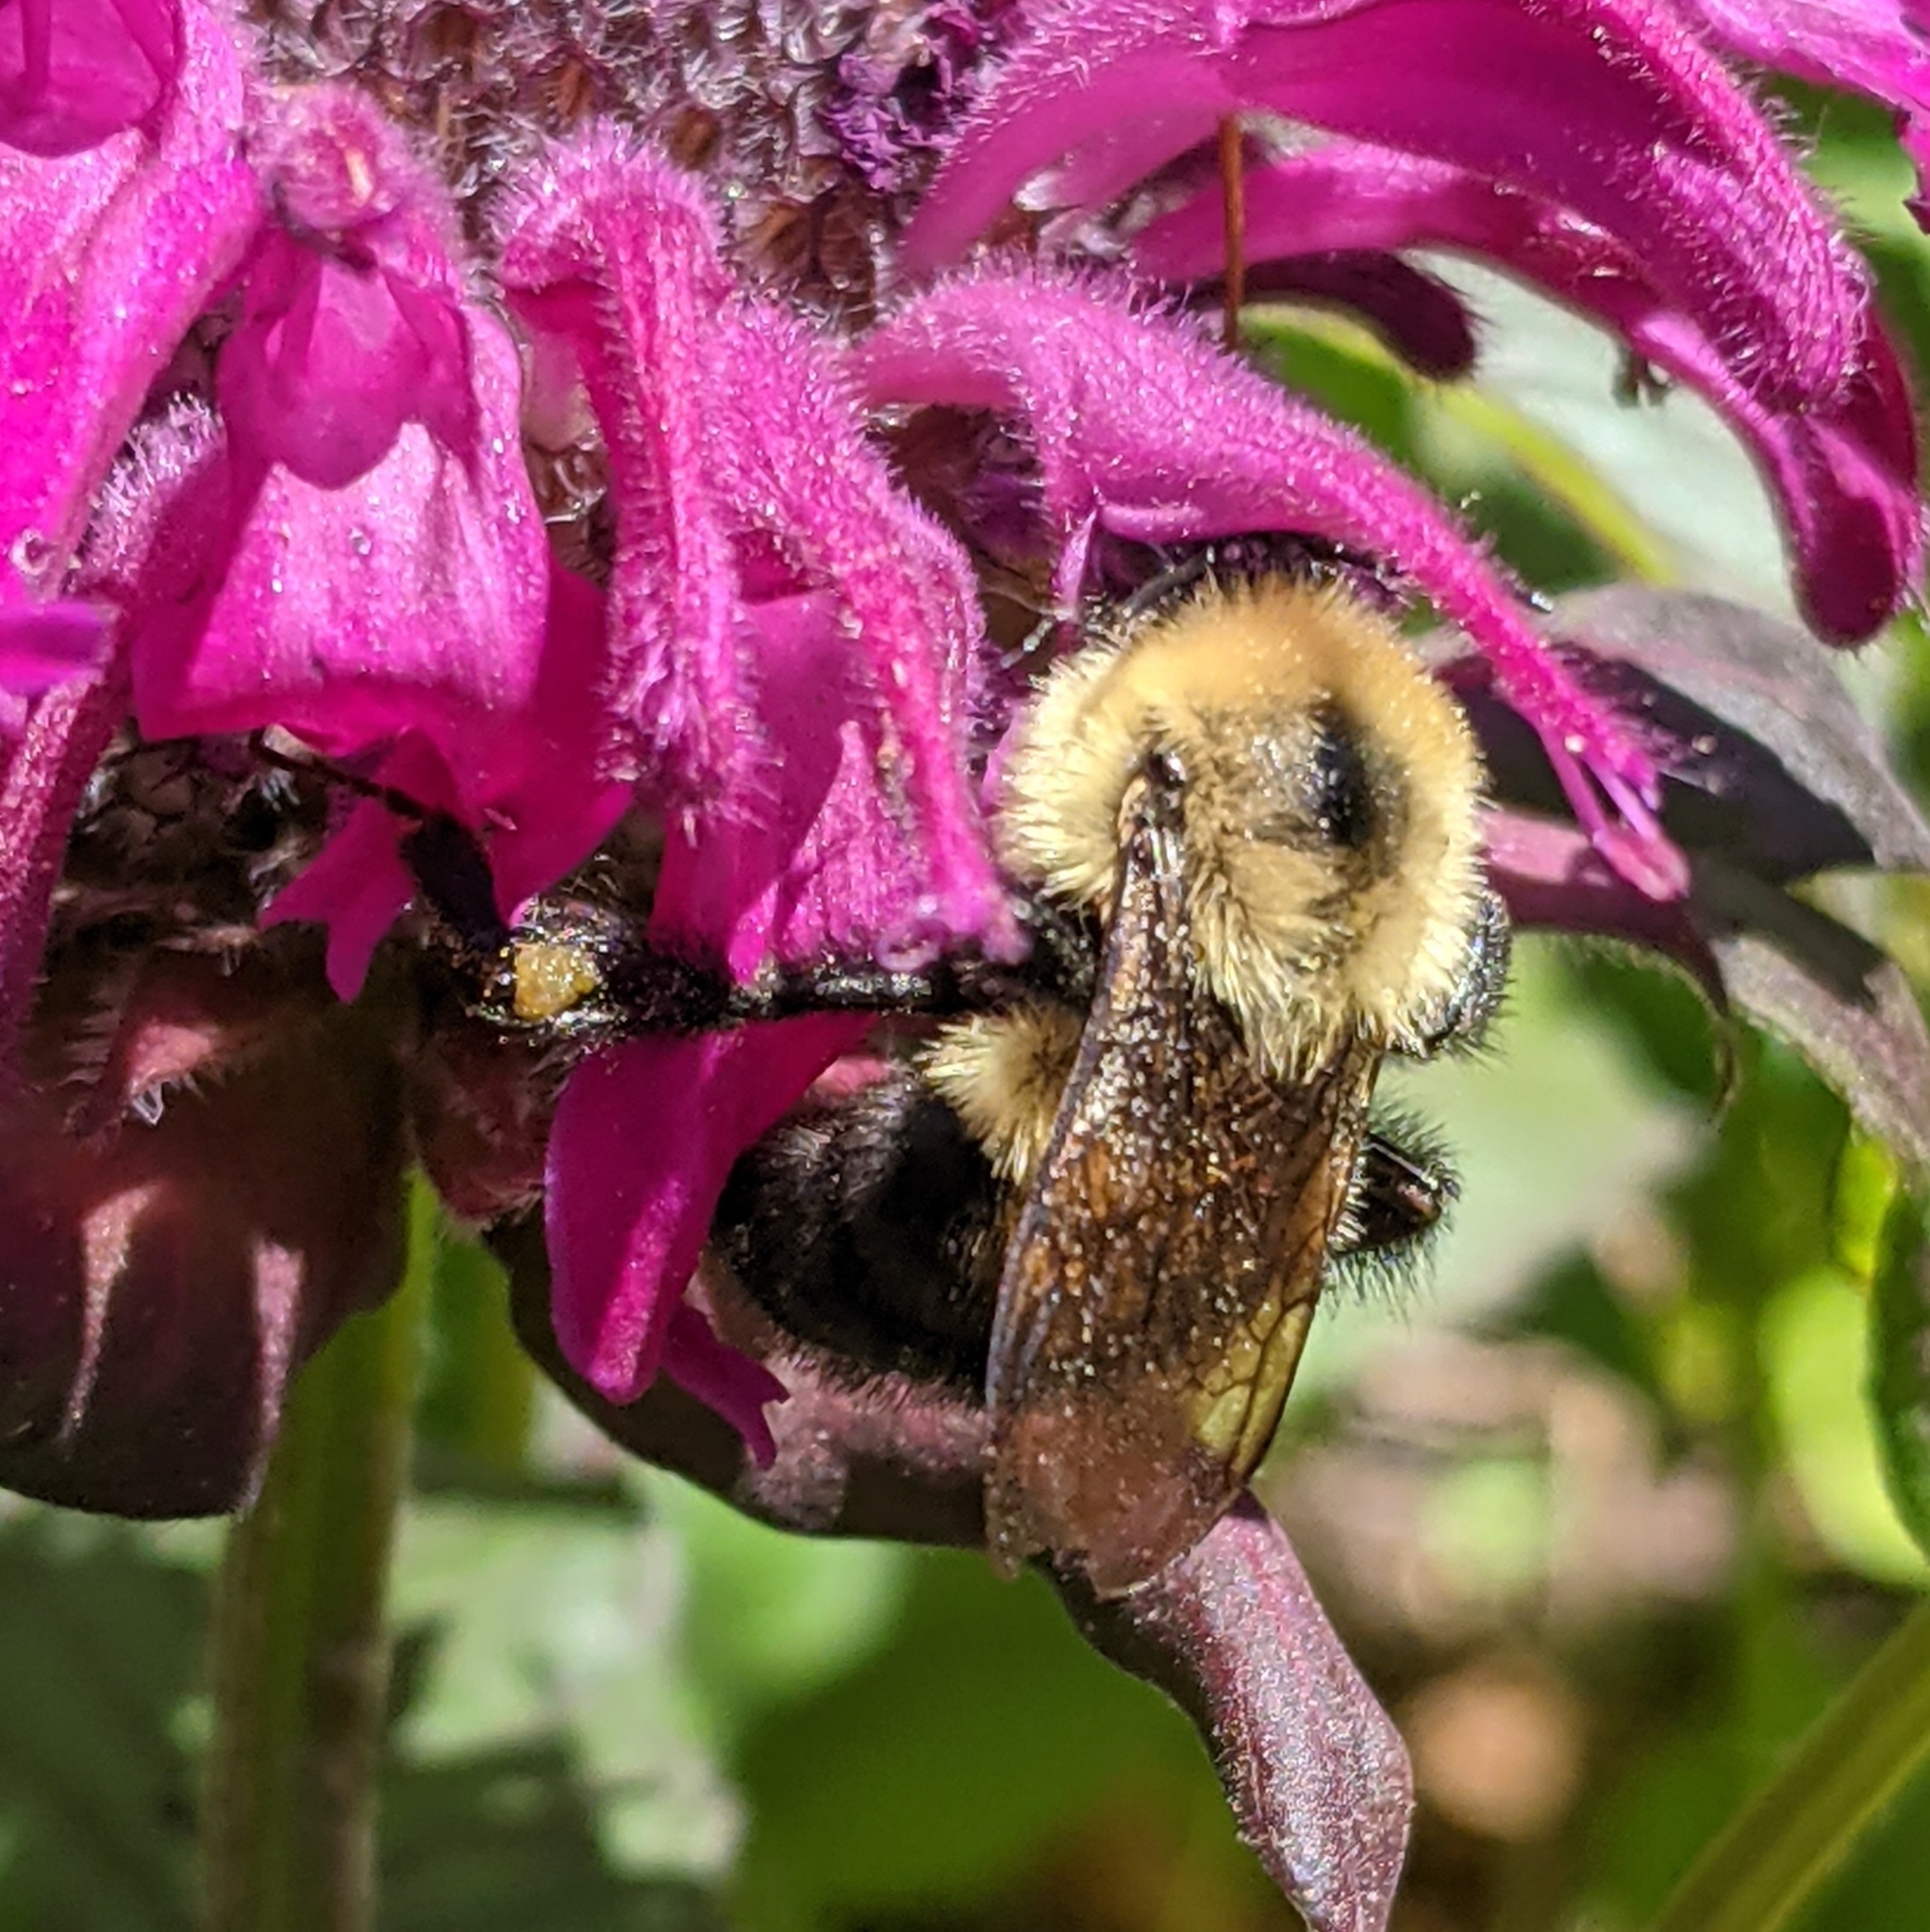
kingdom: Animalia
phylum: Arthropoda
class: Insecta
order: Hymenoptera
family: Apidae
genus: Bombus
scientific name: Bombus bimaculatus
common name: Two-spotted bumble bee
